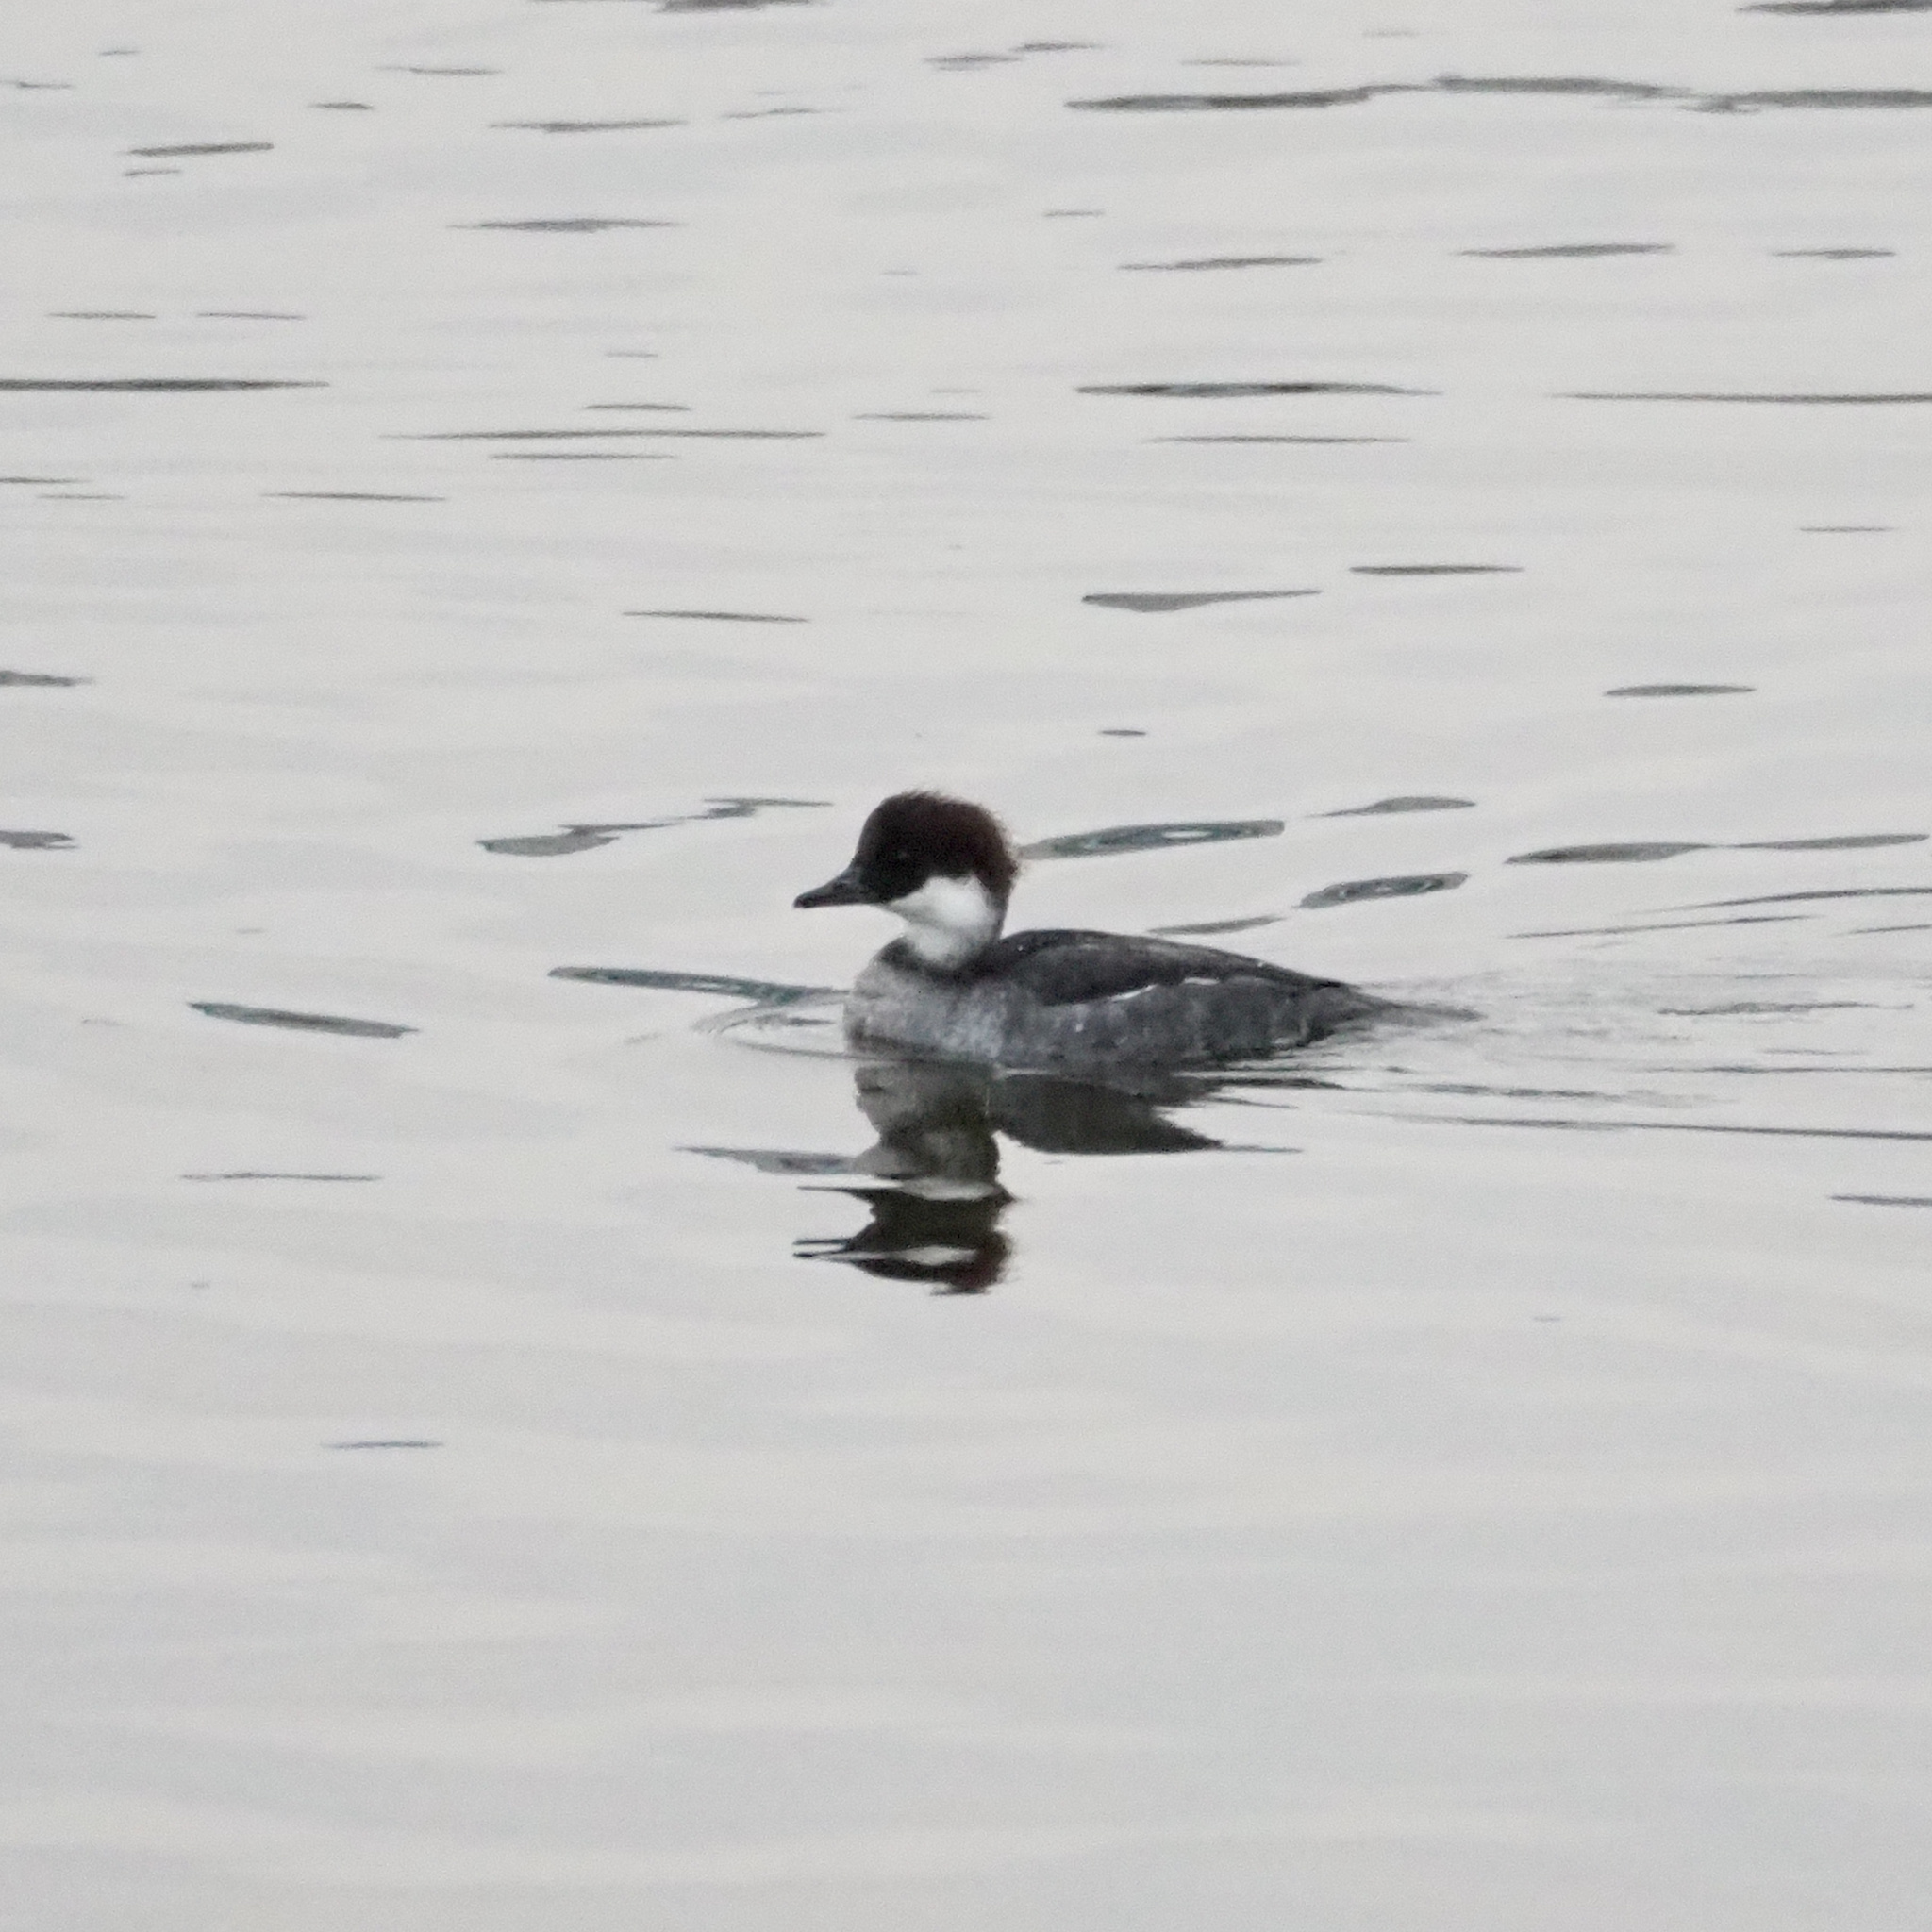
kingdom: Animalia
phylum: Chordata
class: Aves
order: Anseriformes
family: Anatidae
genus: Mergellus
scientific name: Mergellus albellus
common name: Smew
